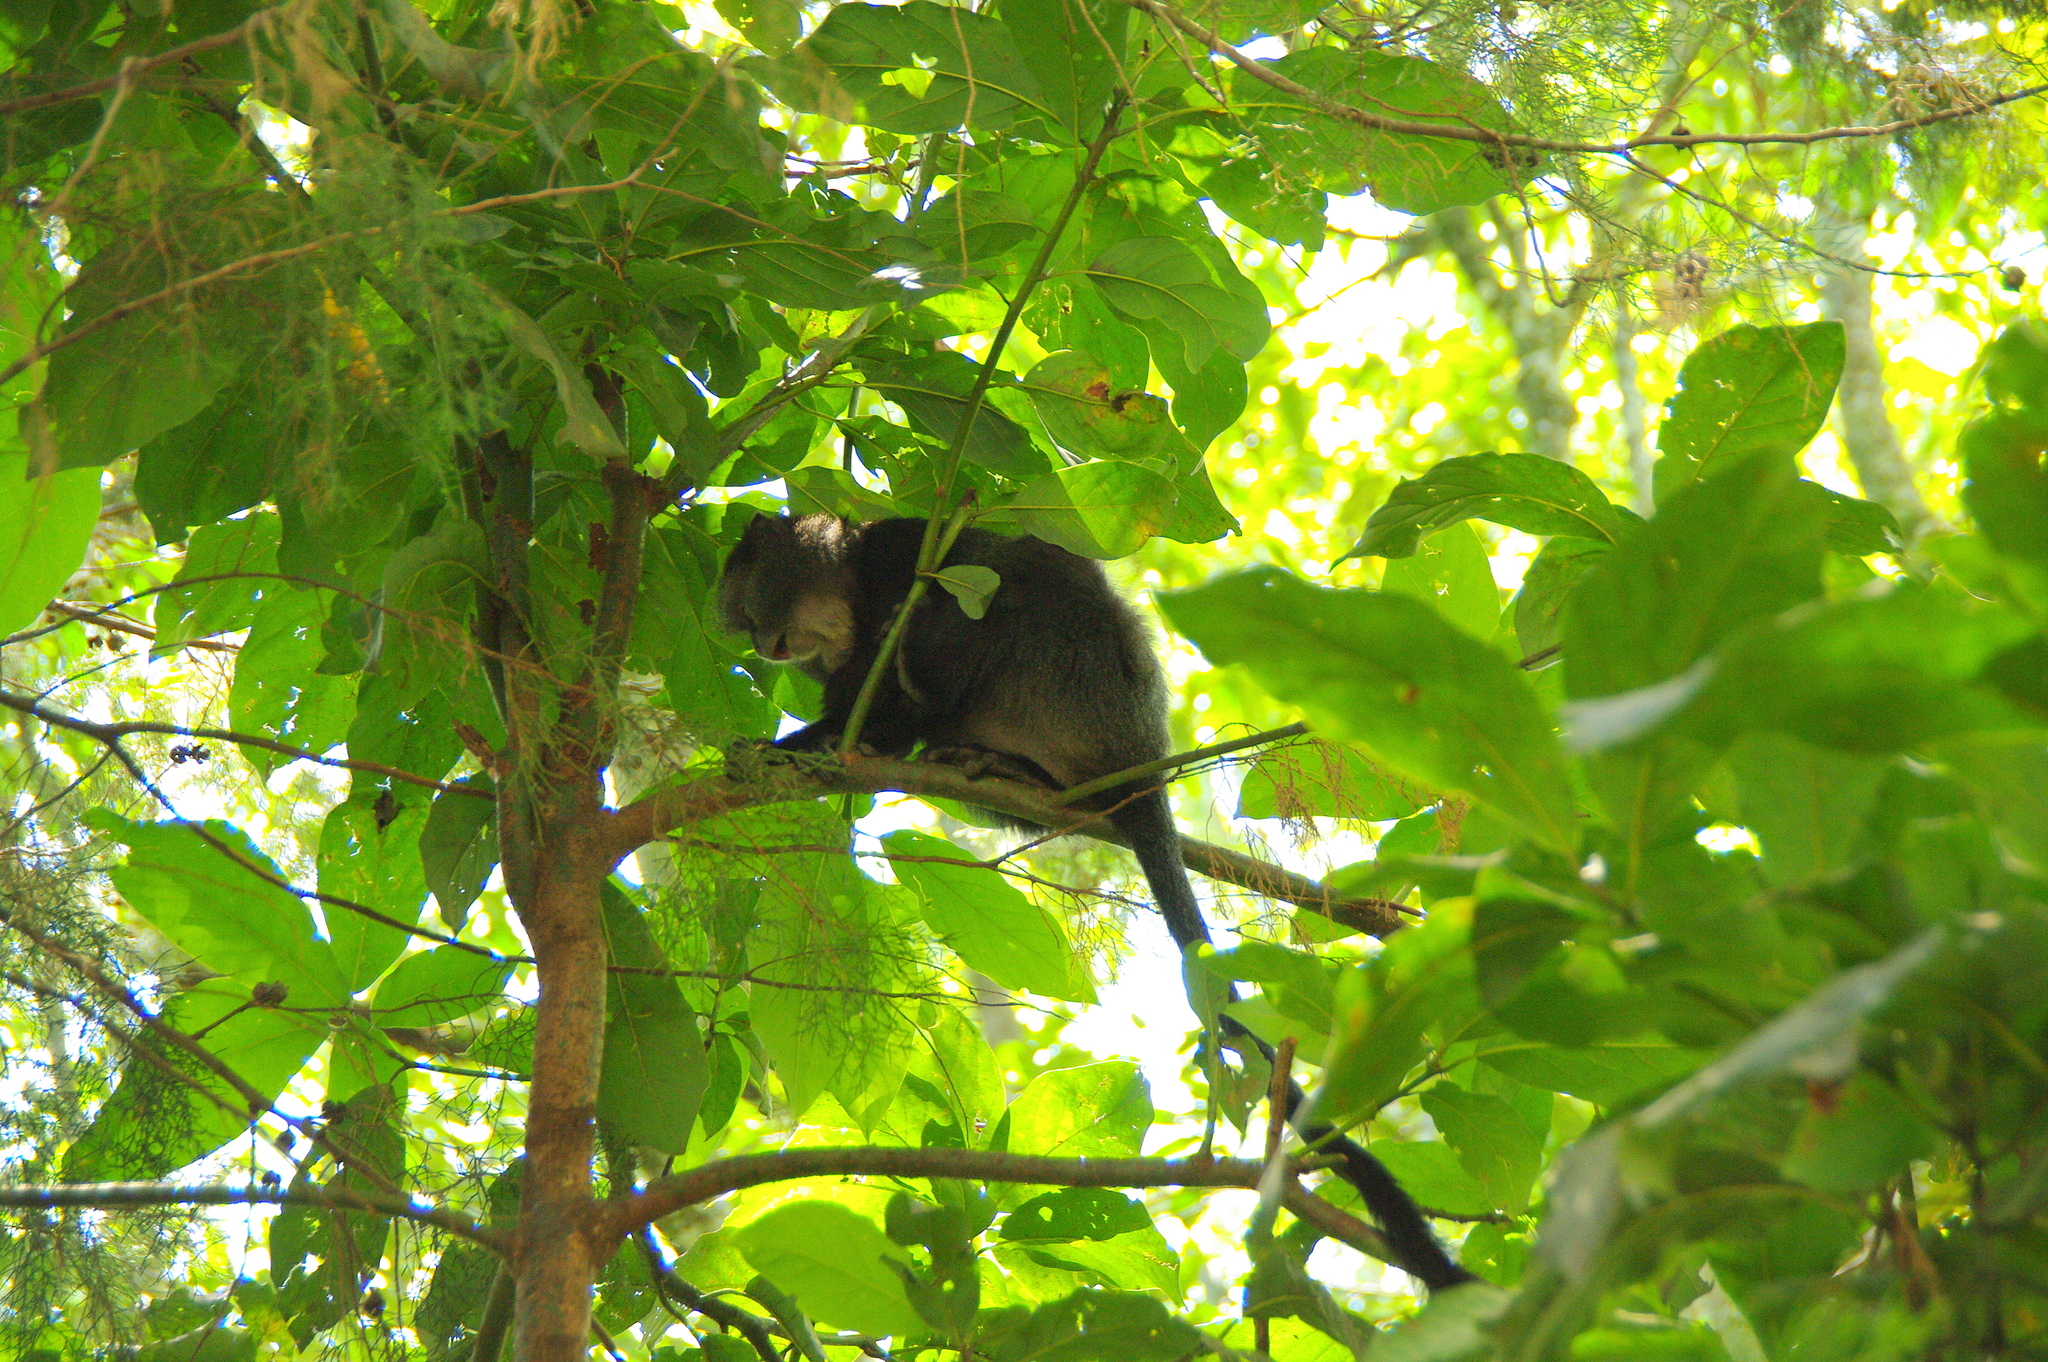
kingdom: Animalia
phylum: Chordata
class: Mammalia
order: Primates
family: Cercopithecidae
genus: Cercopithecus
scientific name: Cercopithecus mitis
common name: Blue monkey
